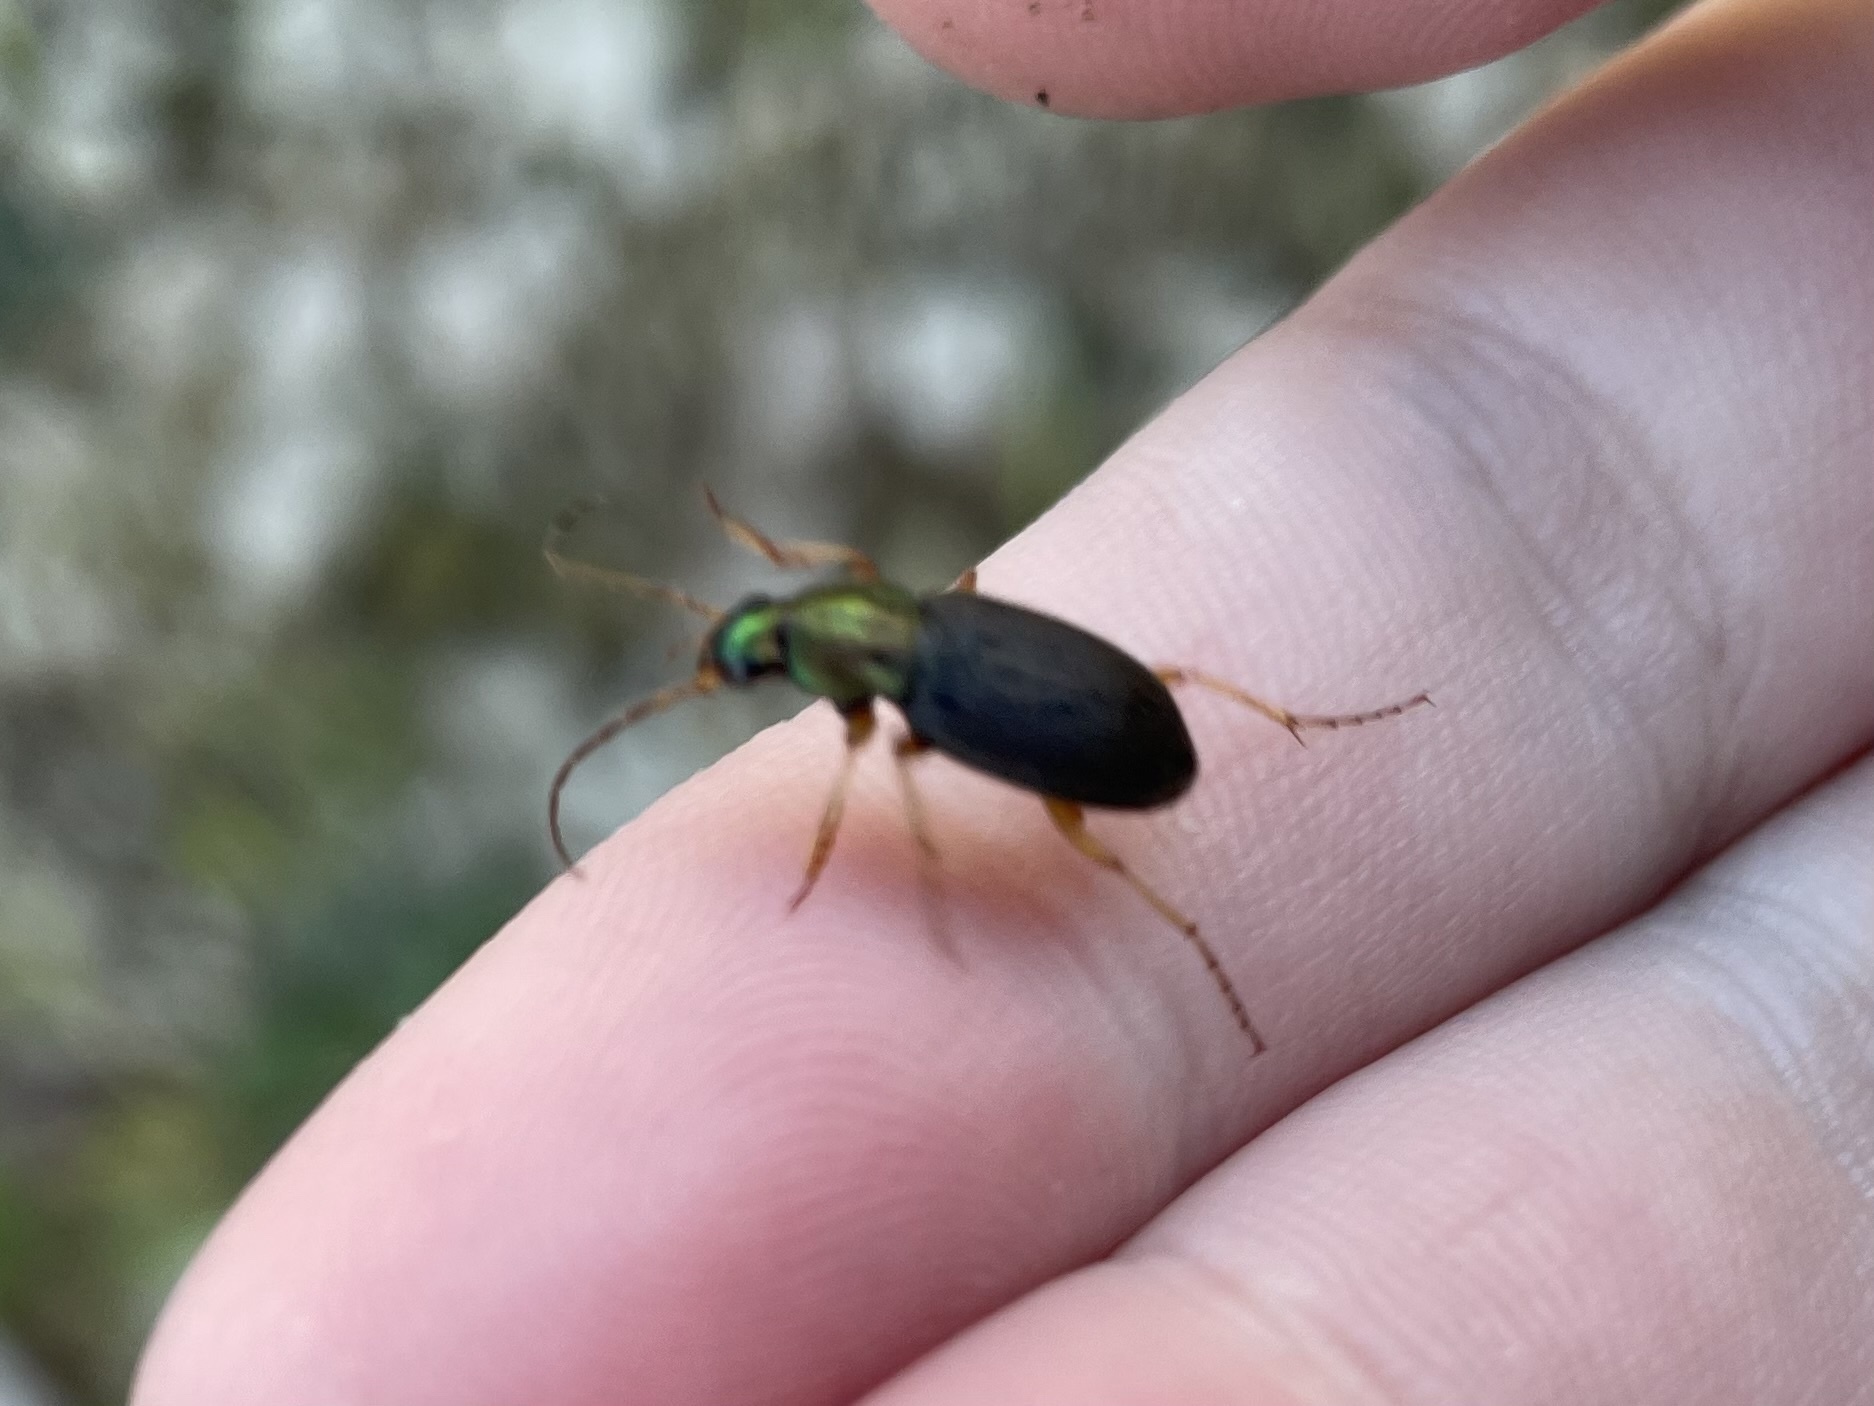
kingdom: Animalia
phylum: Arthropoda
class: Insecta
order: Coleoptera
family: Carabidae
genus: Chlaeniellus
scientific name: Chlaeniellus
